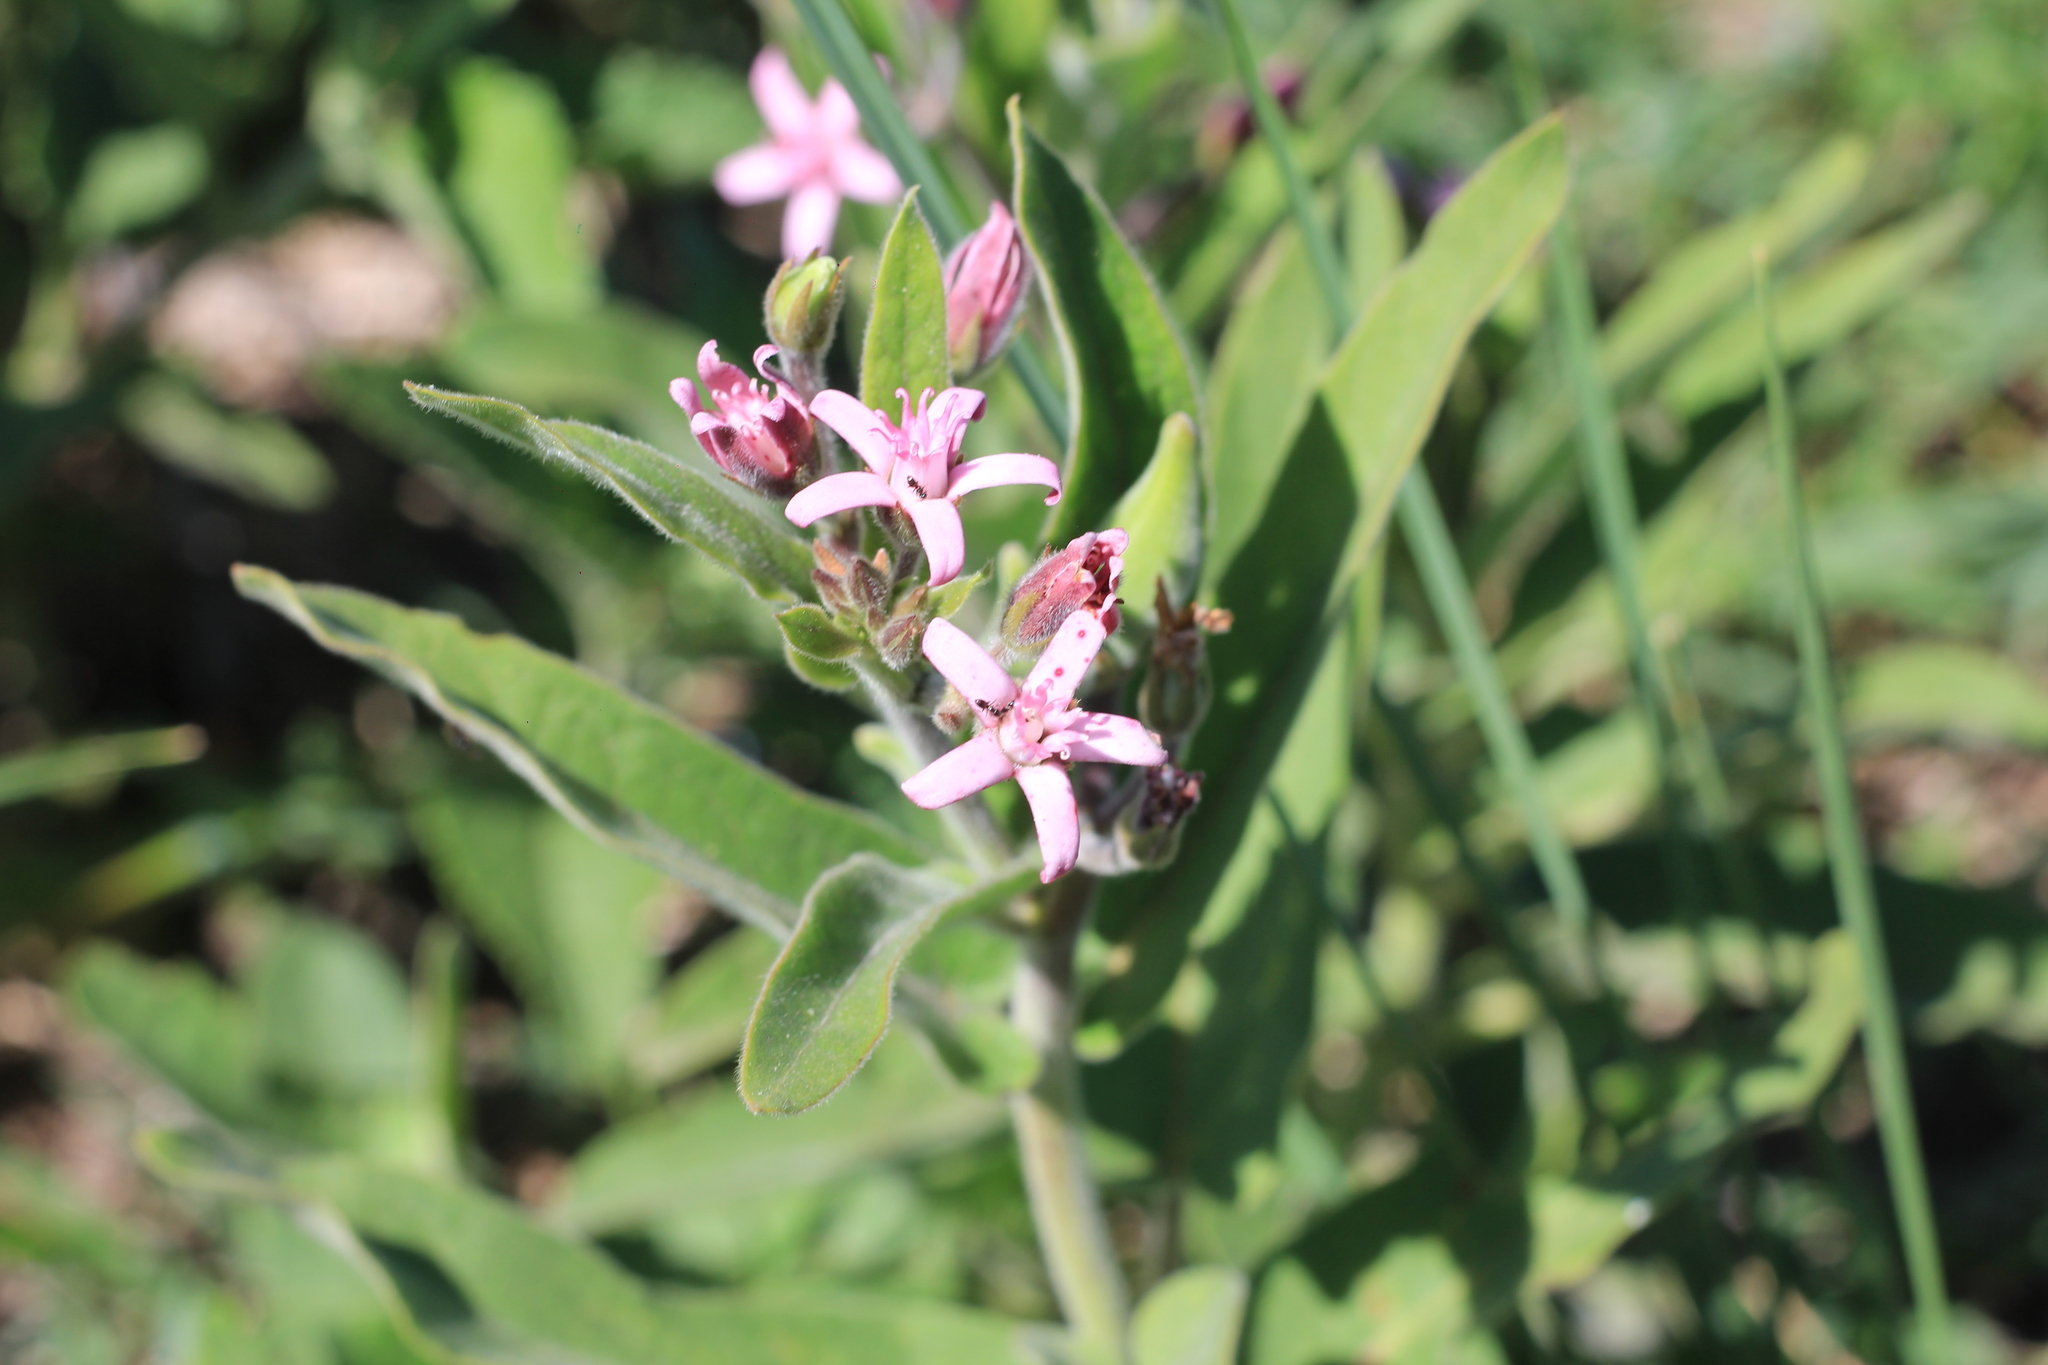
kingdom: Plantae
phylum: Tracheophyta
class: Magnoliopsida
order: Gentianales
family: Apocynaceae
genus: Oxypetalum
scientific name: Oxypetalum solanoides
